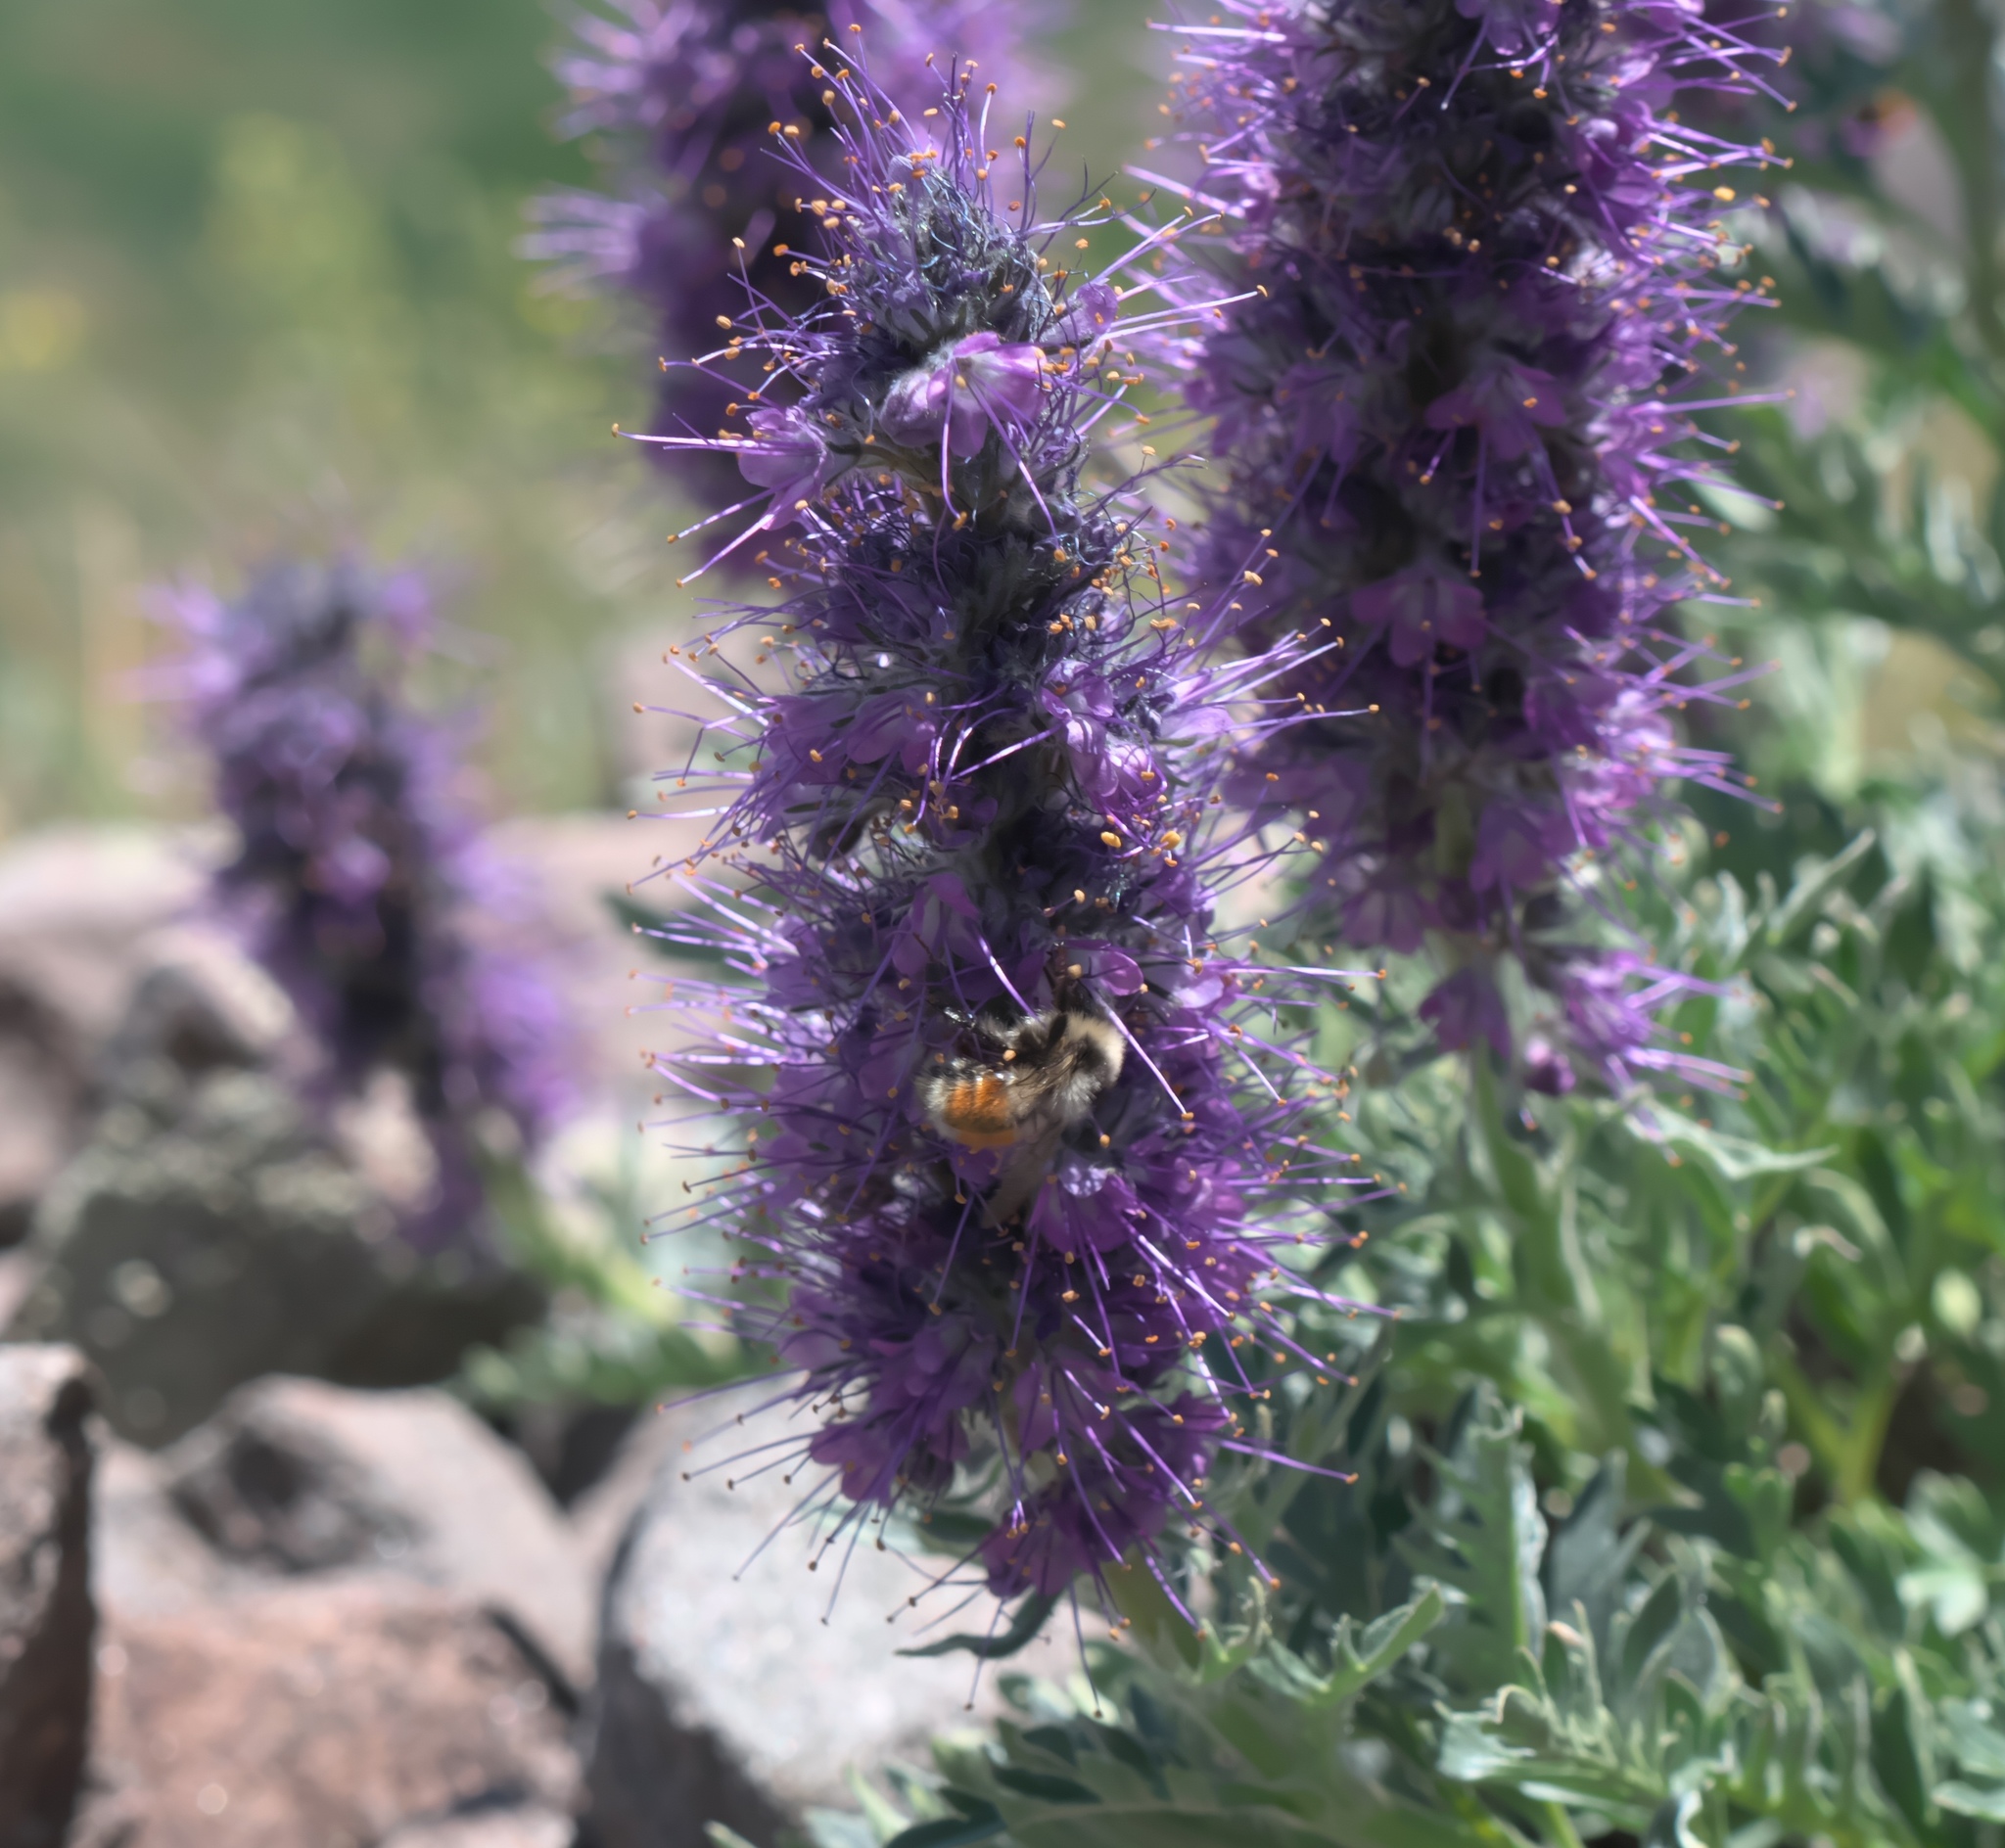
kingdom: Plantae
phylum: Tracheophyta
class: Magnoliopsida
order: Boraginales
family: Hydrophyllaceae
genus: Phacelia
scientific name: Phacelia sericea
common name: Silky phacelia
